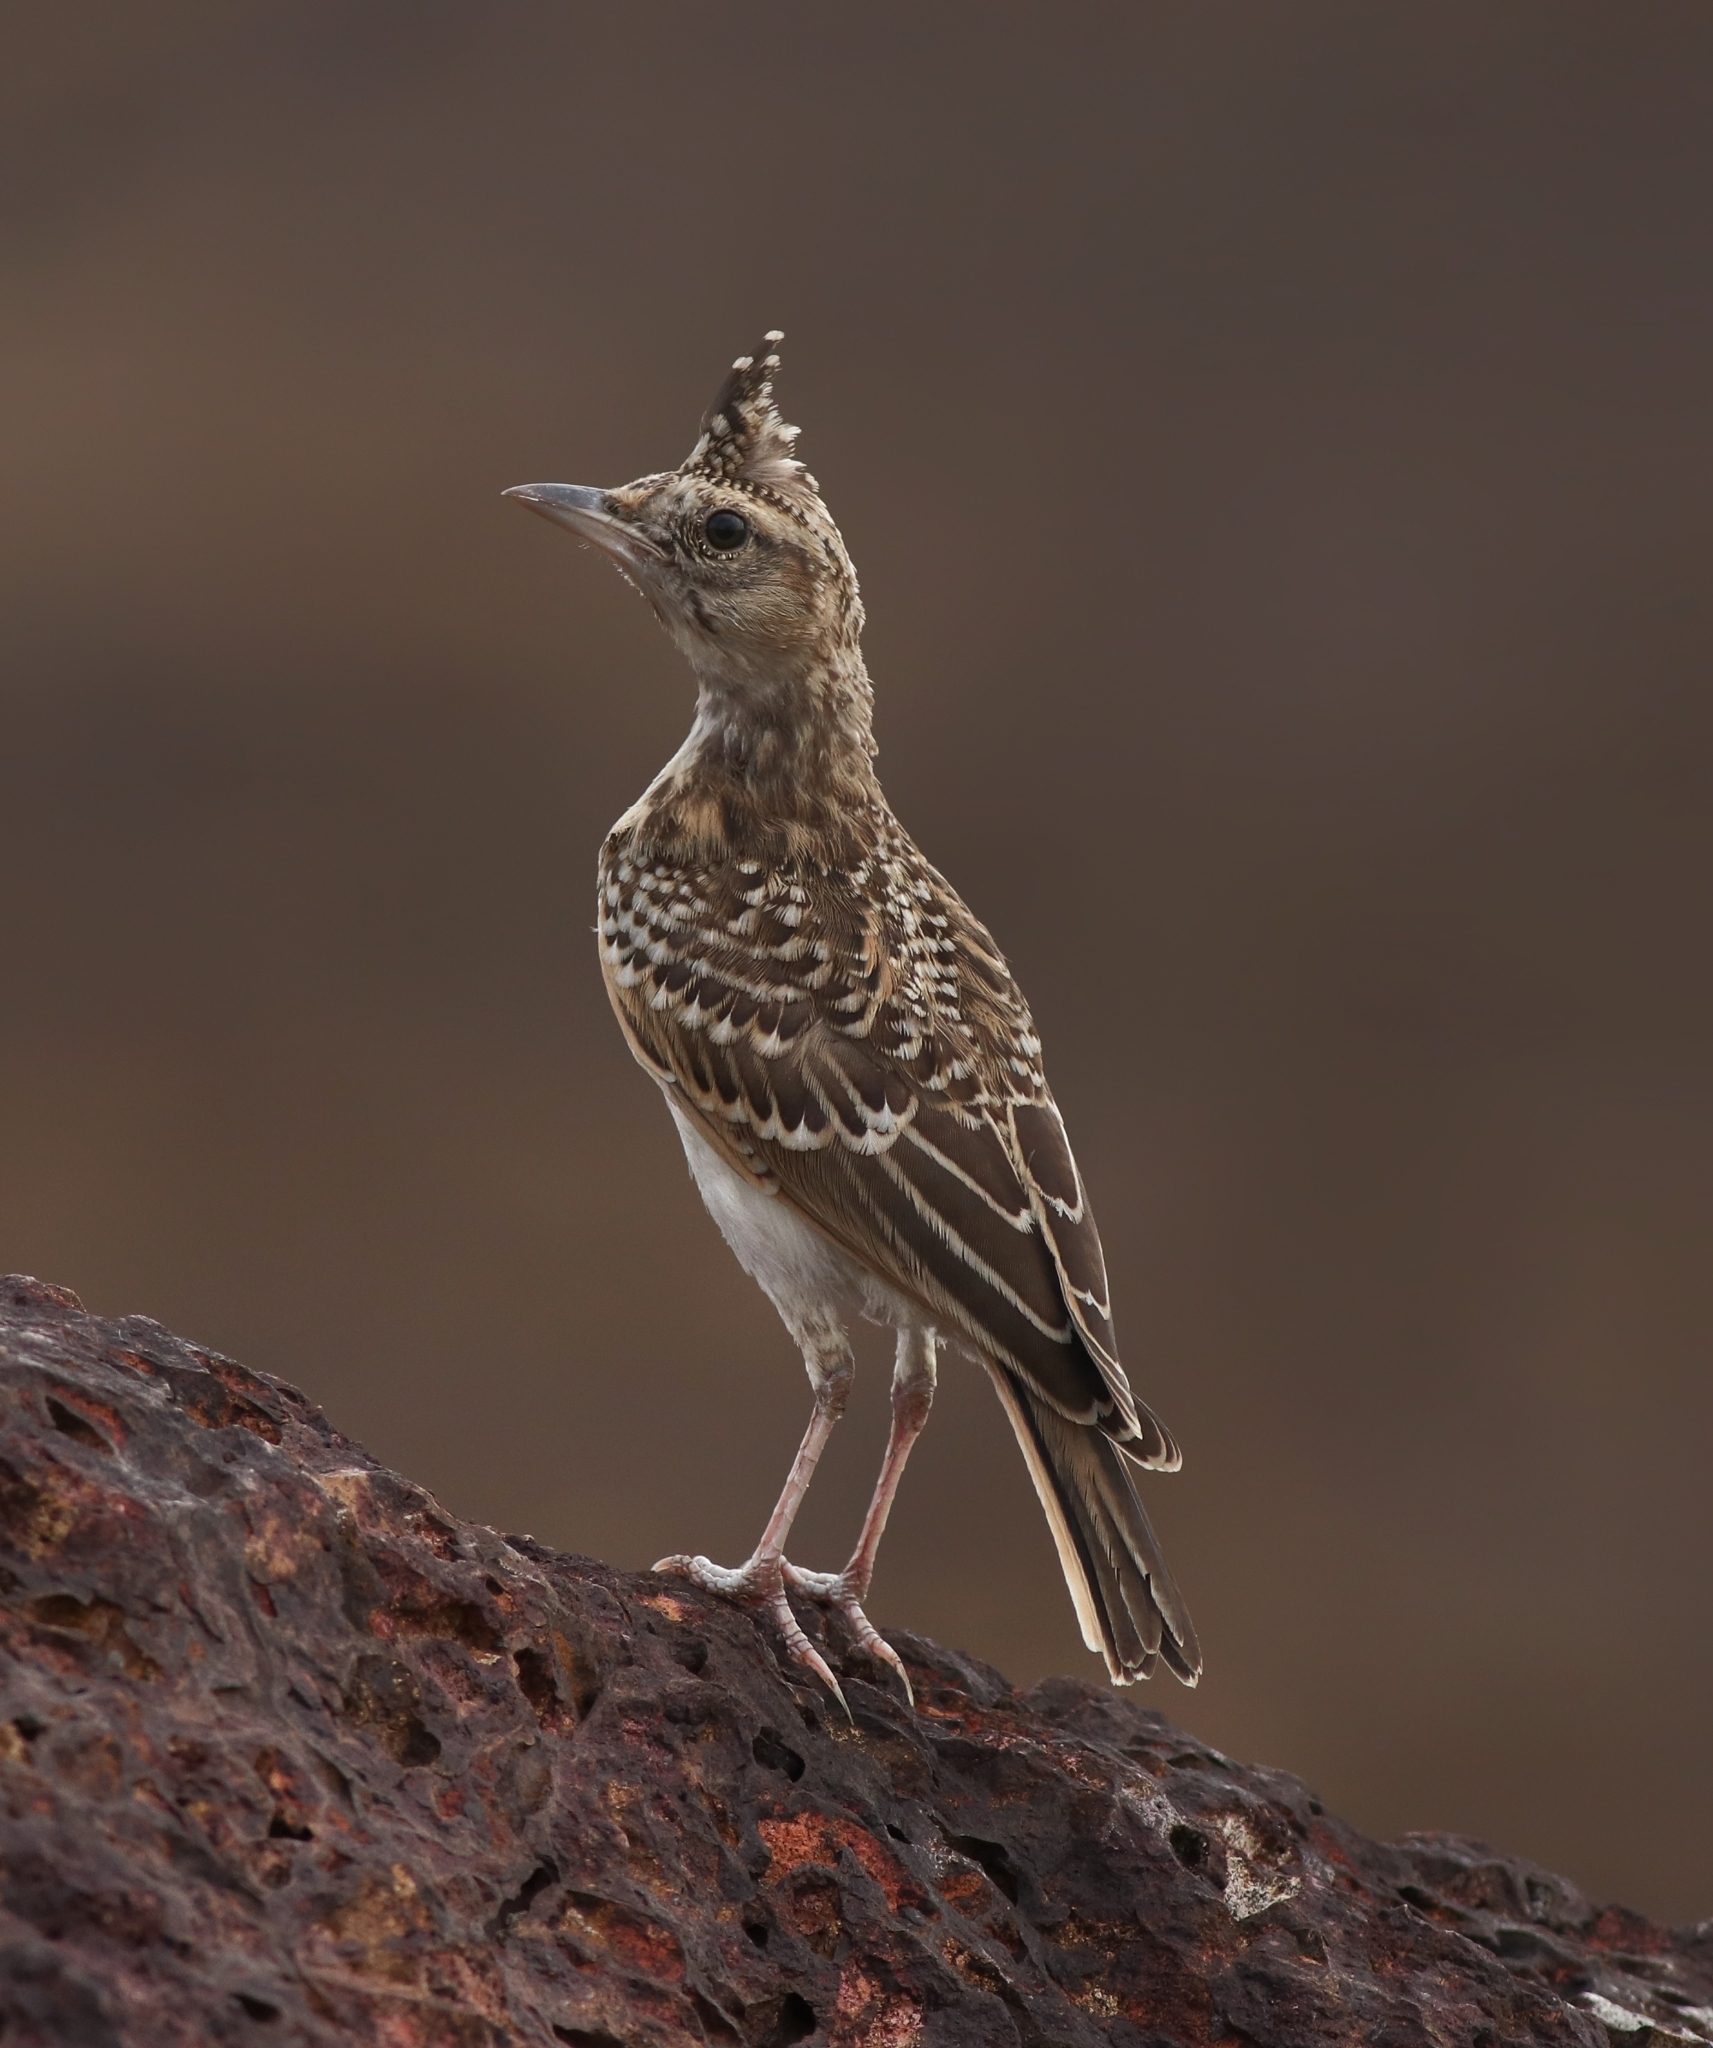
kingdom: Animalia
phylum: Chordata
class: Aves
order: Passeriformes
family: Alaudidae
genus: Galerida
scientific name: Galerida malabarica
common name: Malabar lark
